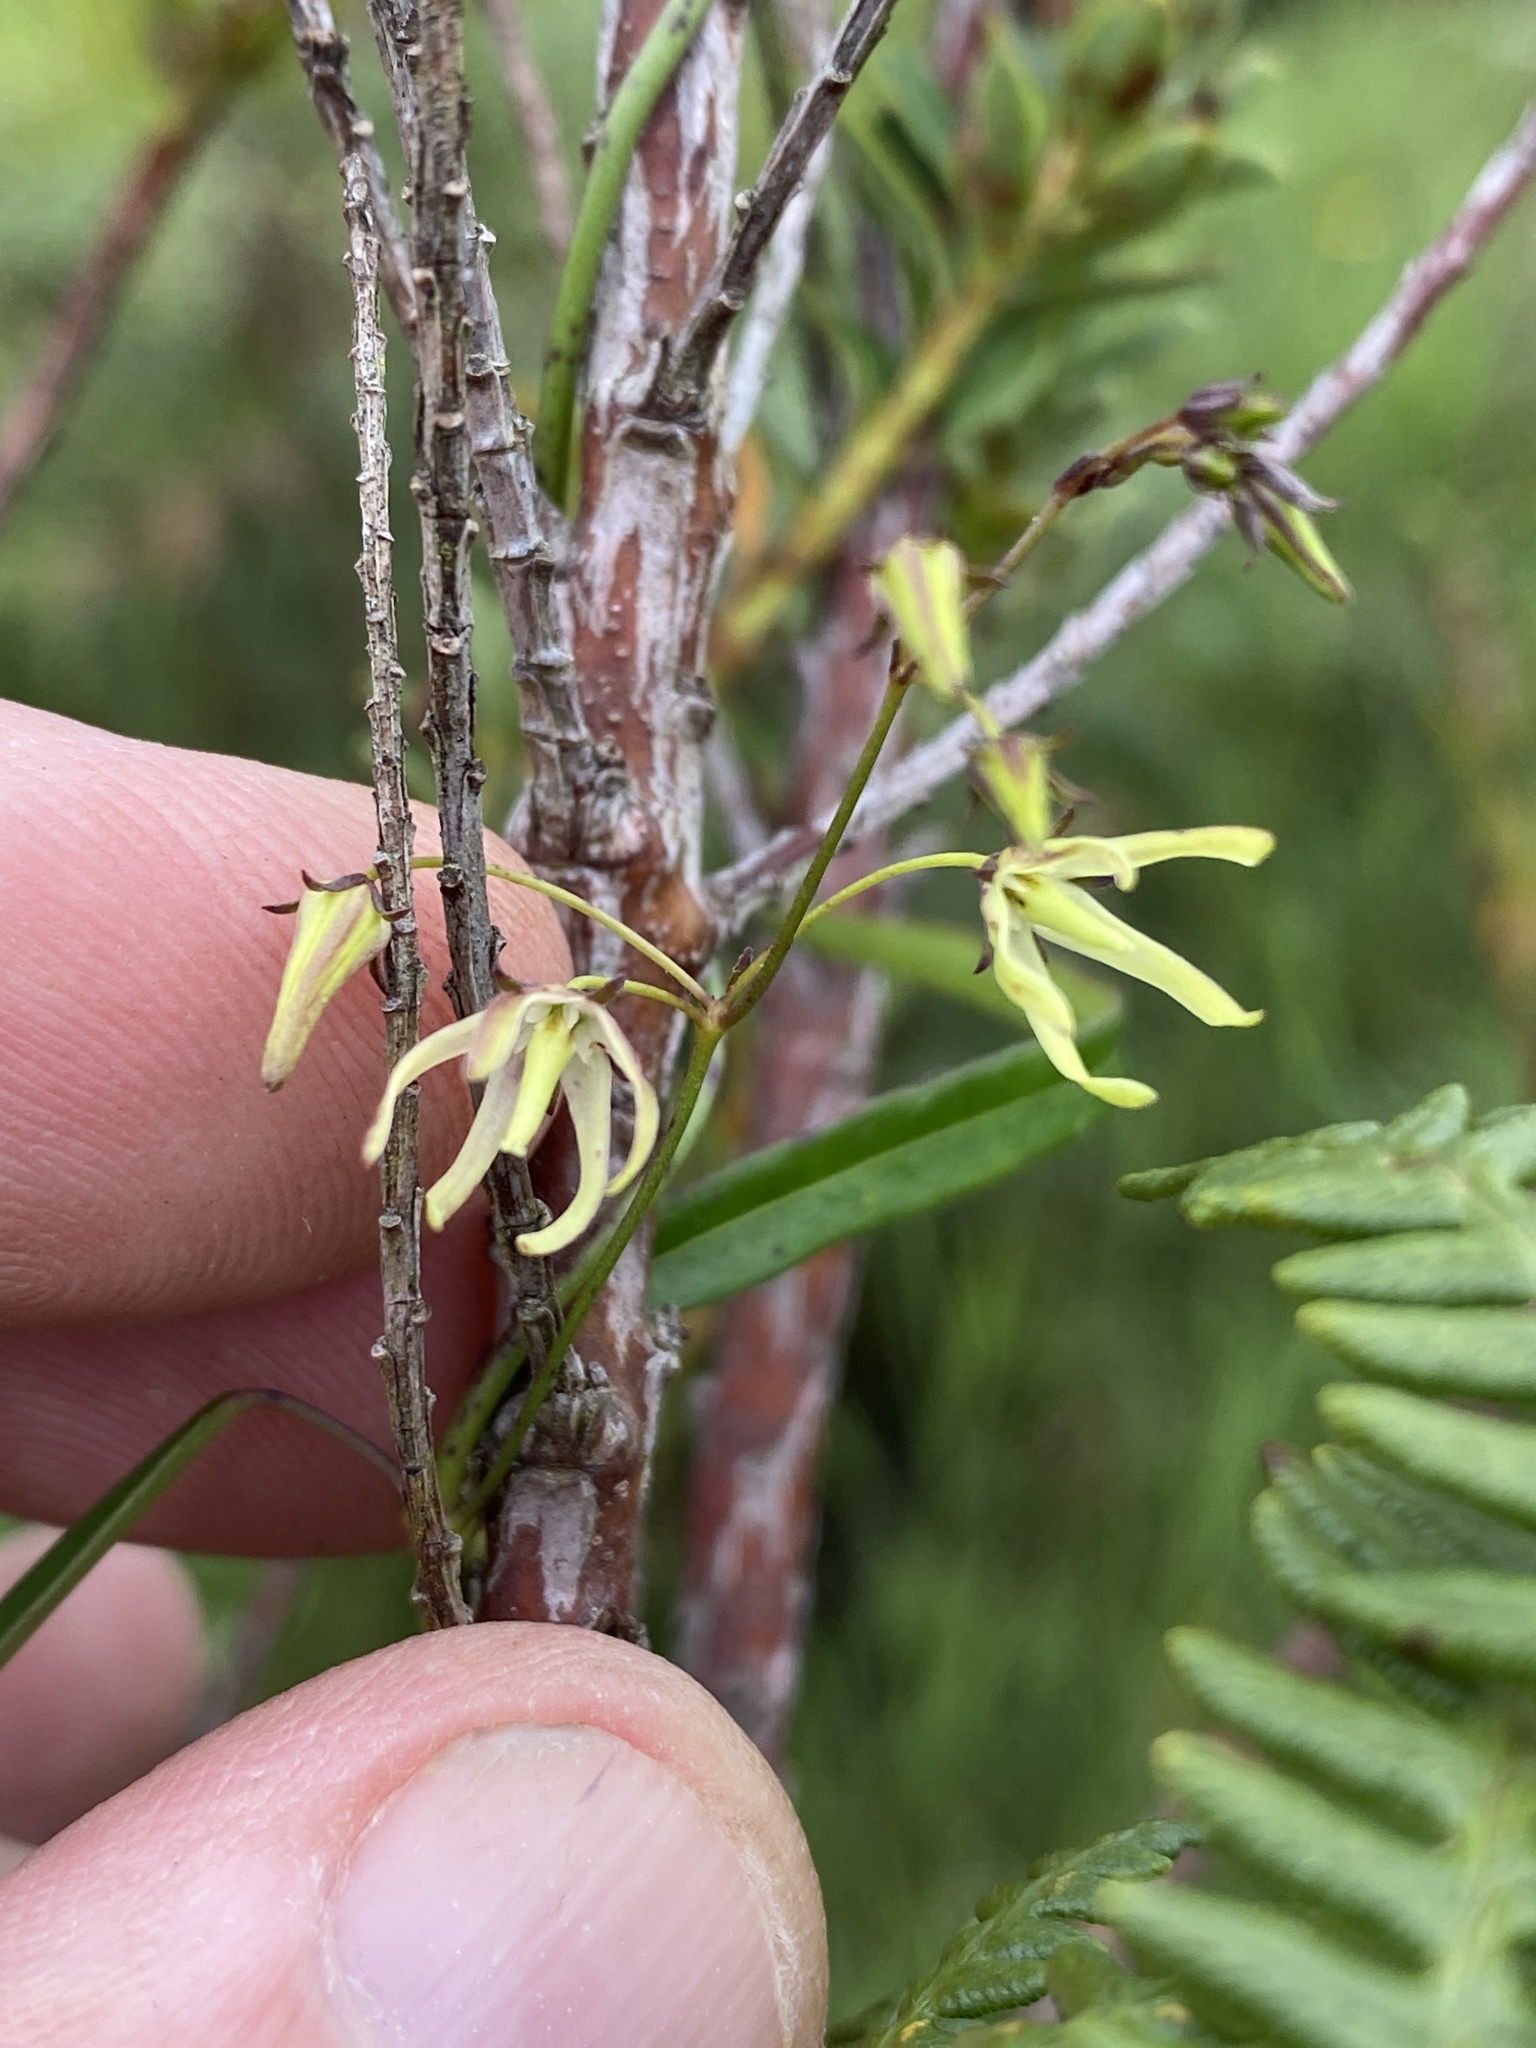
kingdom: Plantae
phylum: Tracheophyta
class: Magnoliopsida
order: Gentianales
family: Apocynaceae
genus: Oncinema
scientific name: Oncinema lineare
